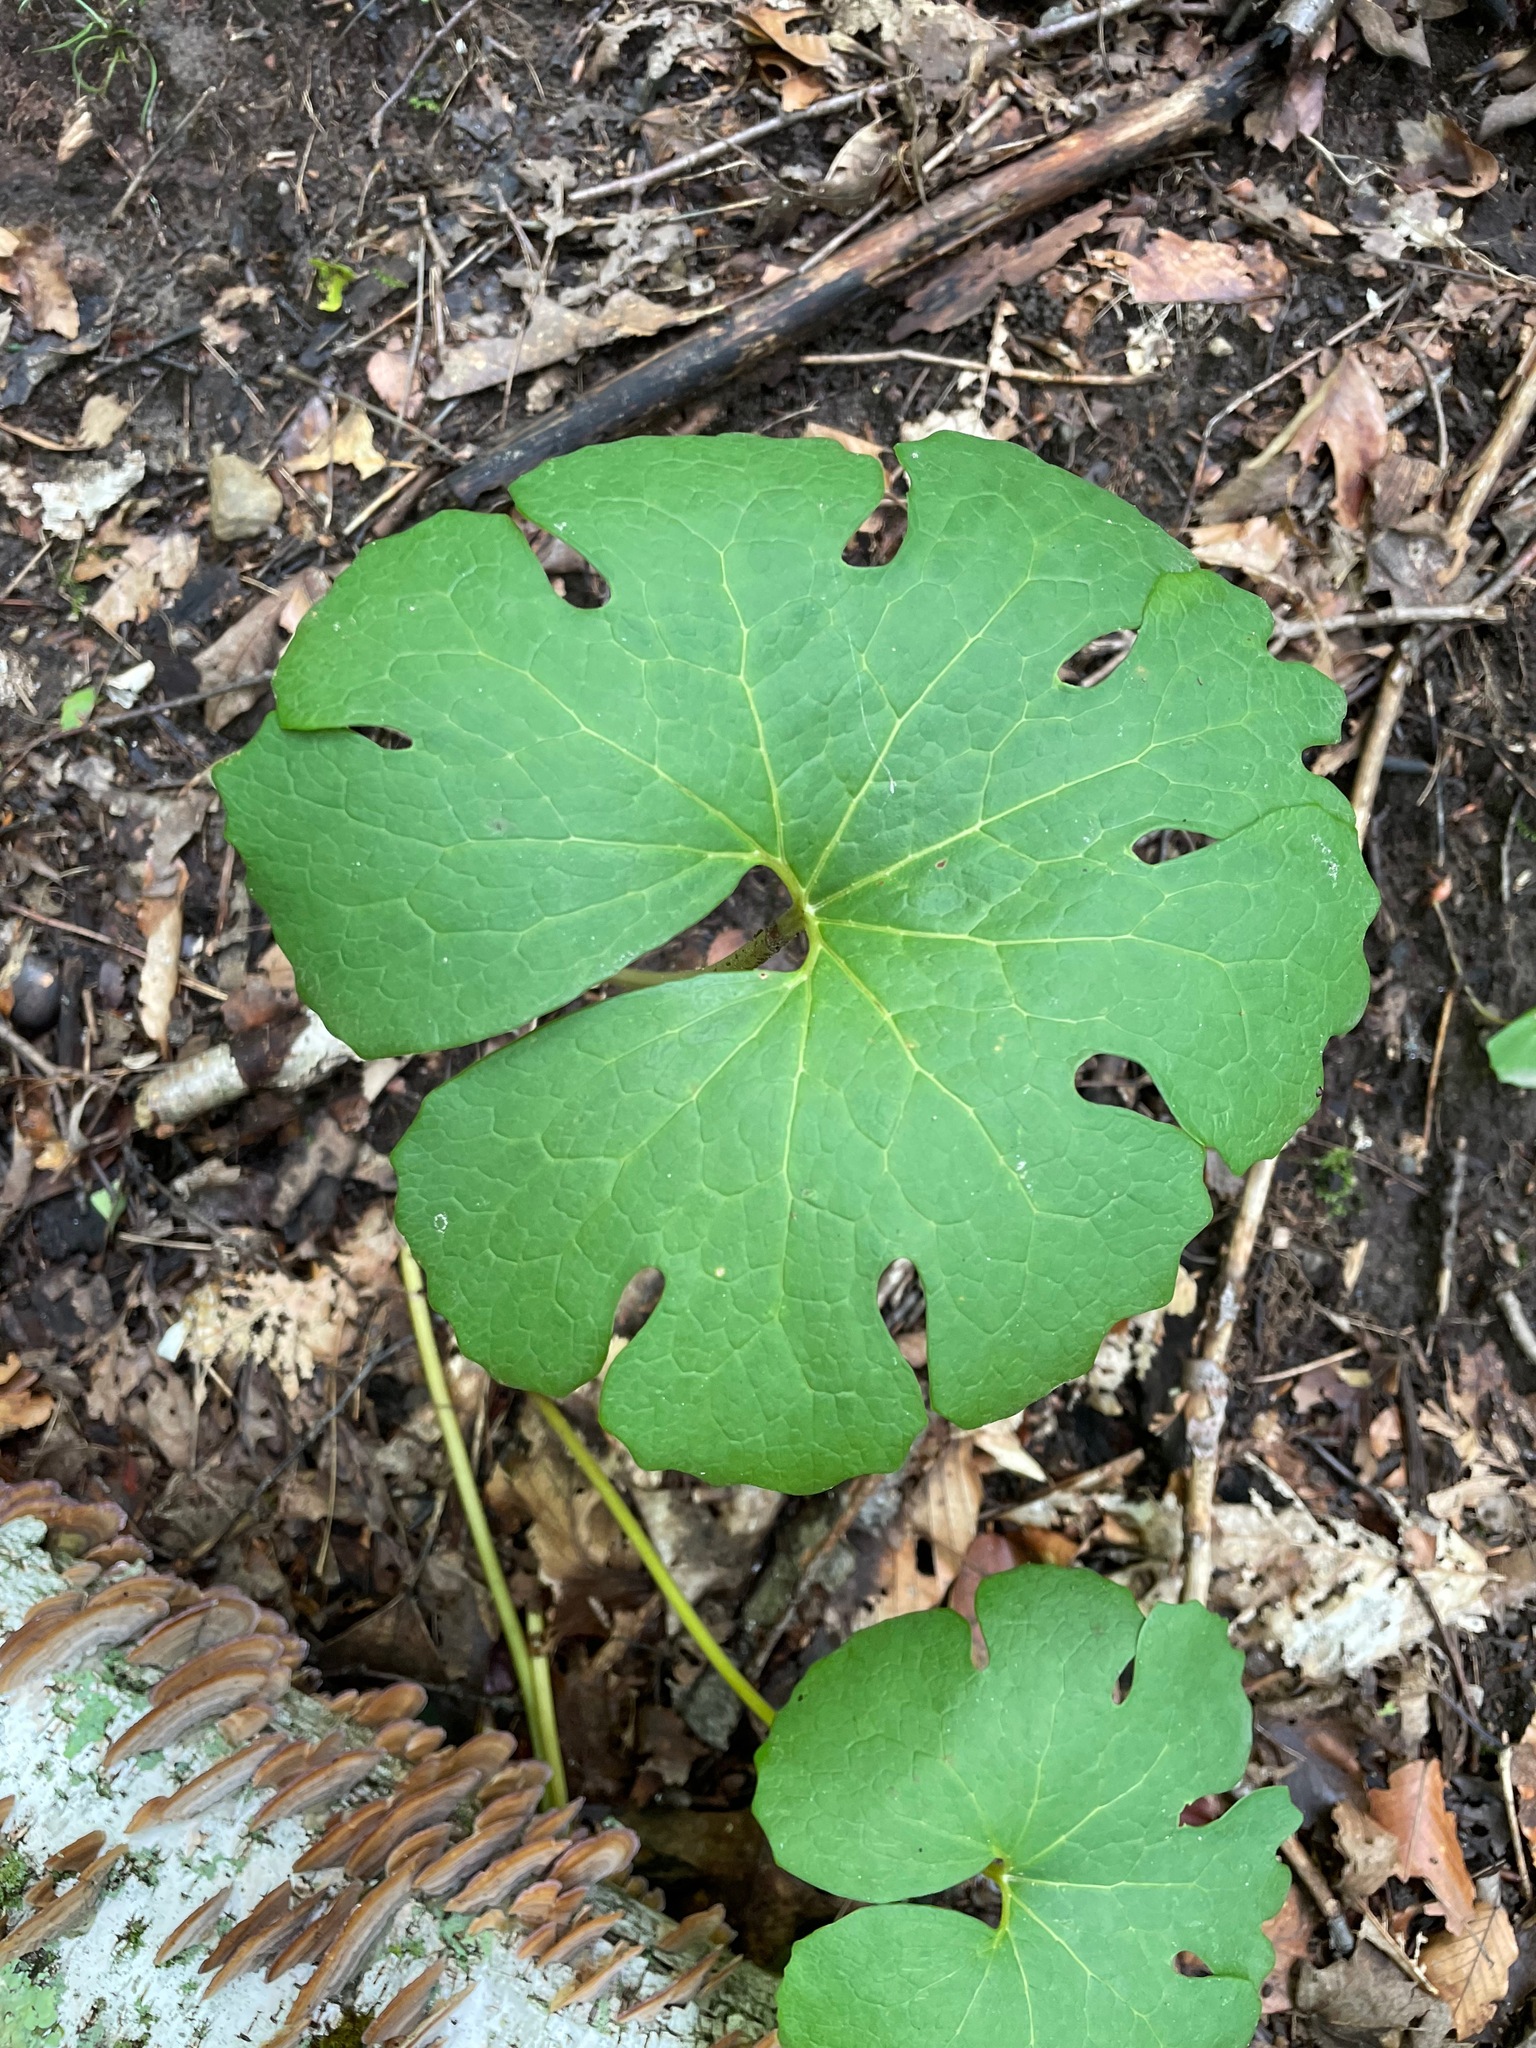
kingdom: Plantae
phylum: Tracheophyta
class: Magnoliopsida
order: Ranunculales
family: Papaveraceae
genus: Sanguinaria
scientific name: Sanguinaria canadensis
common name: Bloodroot
